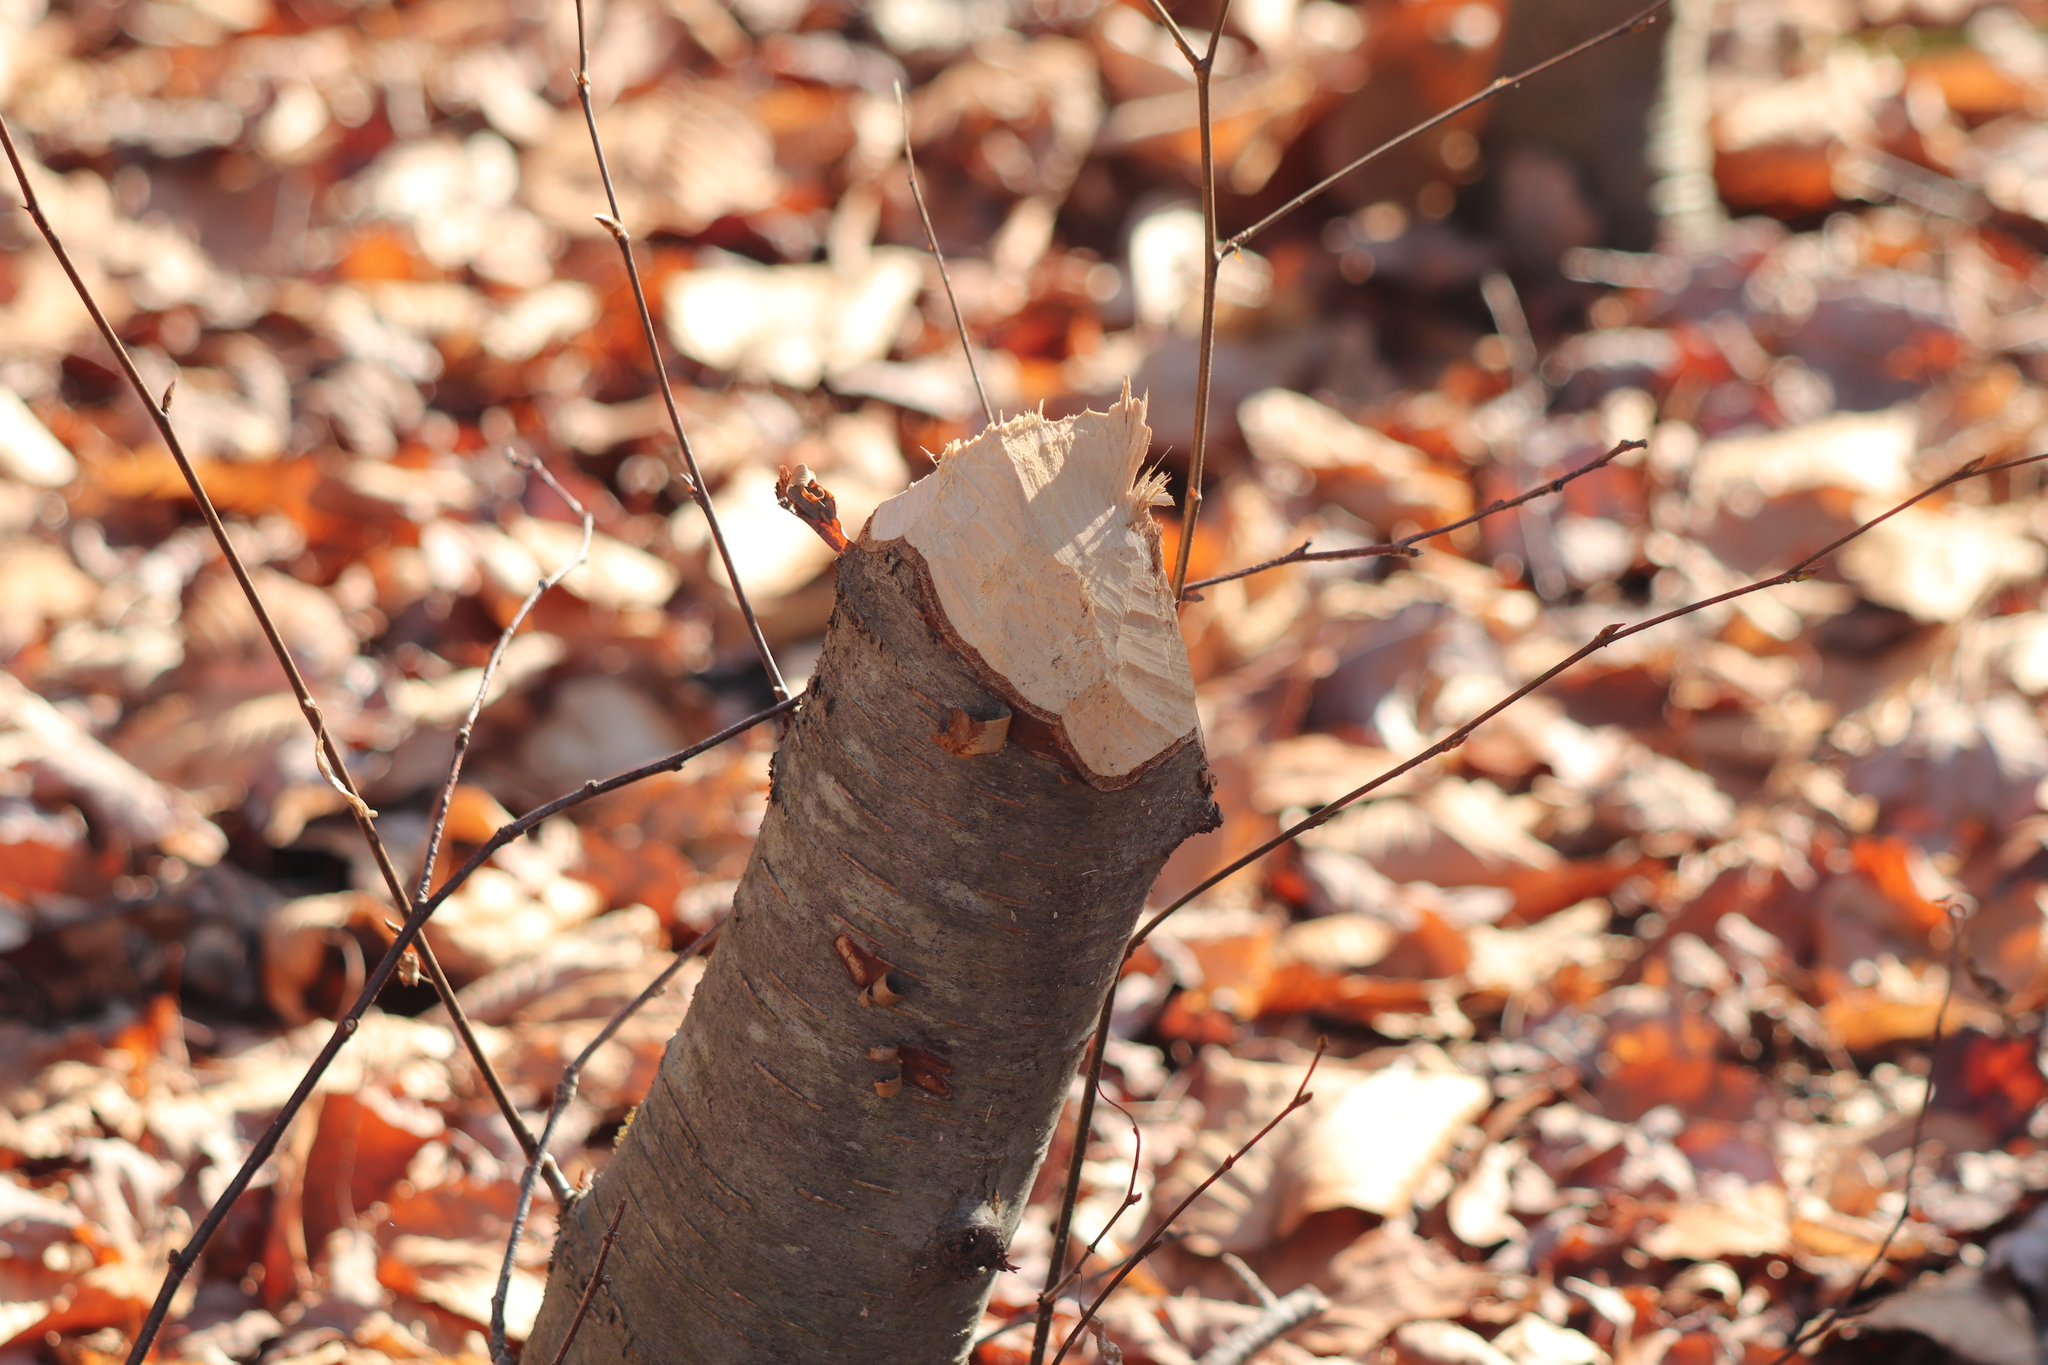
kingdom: Animalia
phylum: Chordata
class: Mammalia
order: Rodentia
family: Castoridae
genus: Castor
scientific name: Castor canadensis
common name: American beaver
